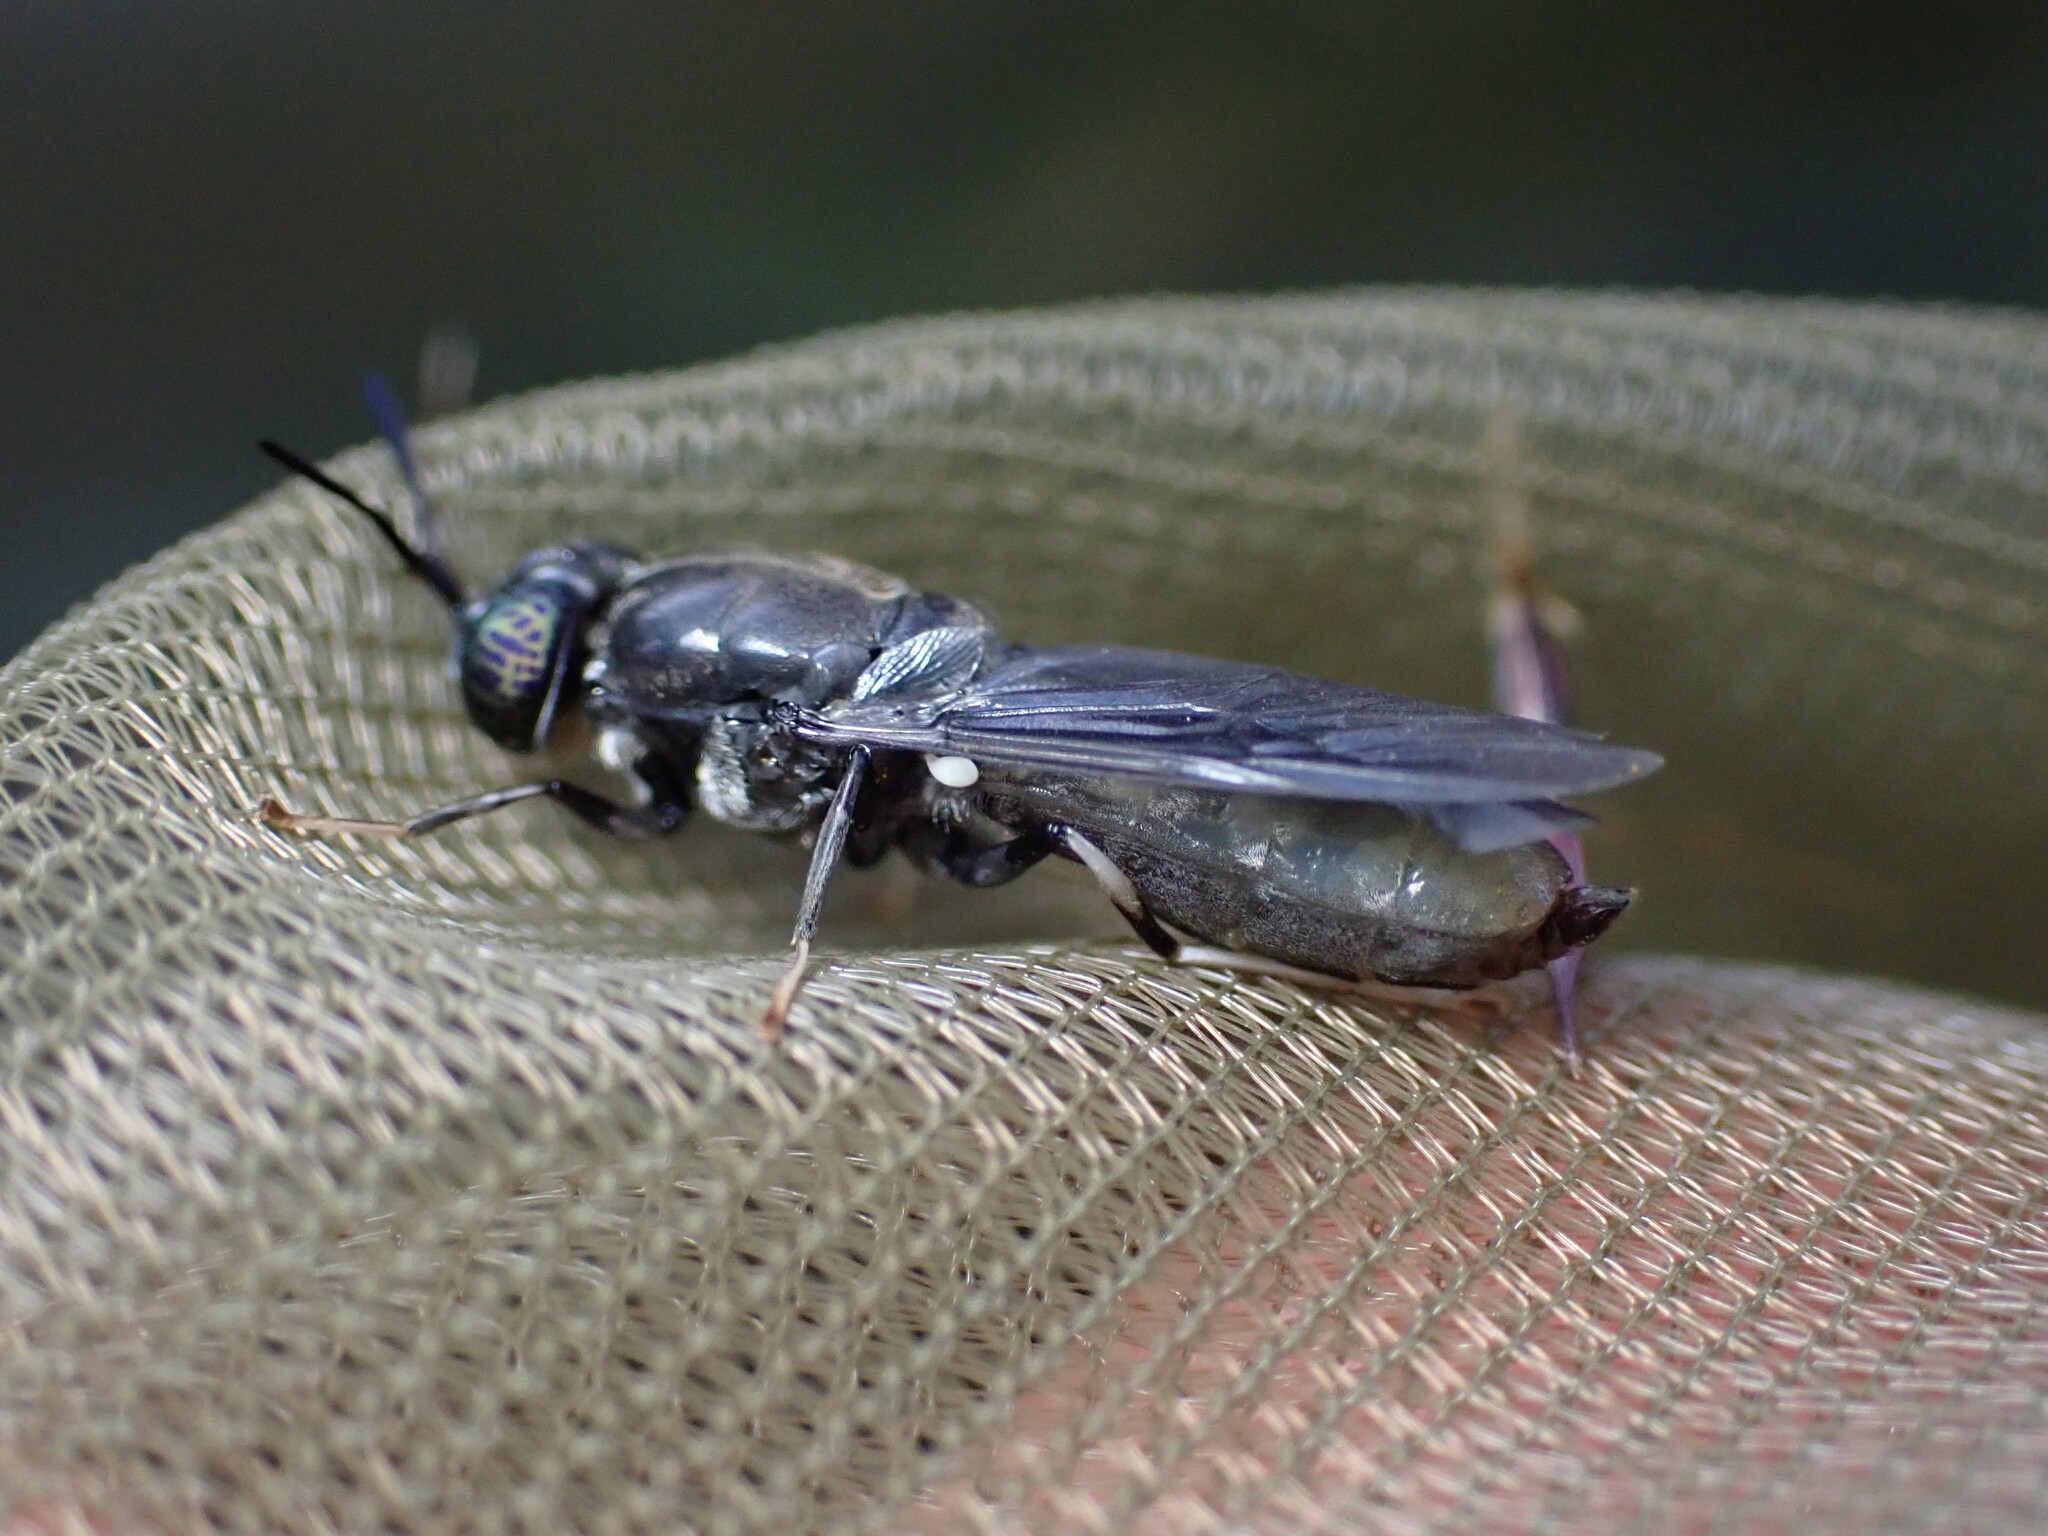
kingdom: Animalia
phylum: Arthropoda
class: Insecta
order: Diptera
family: Stratiomyidae
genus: Hermetia
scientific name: Hermetia illucens
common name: Black soldier fly
